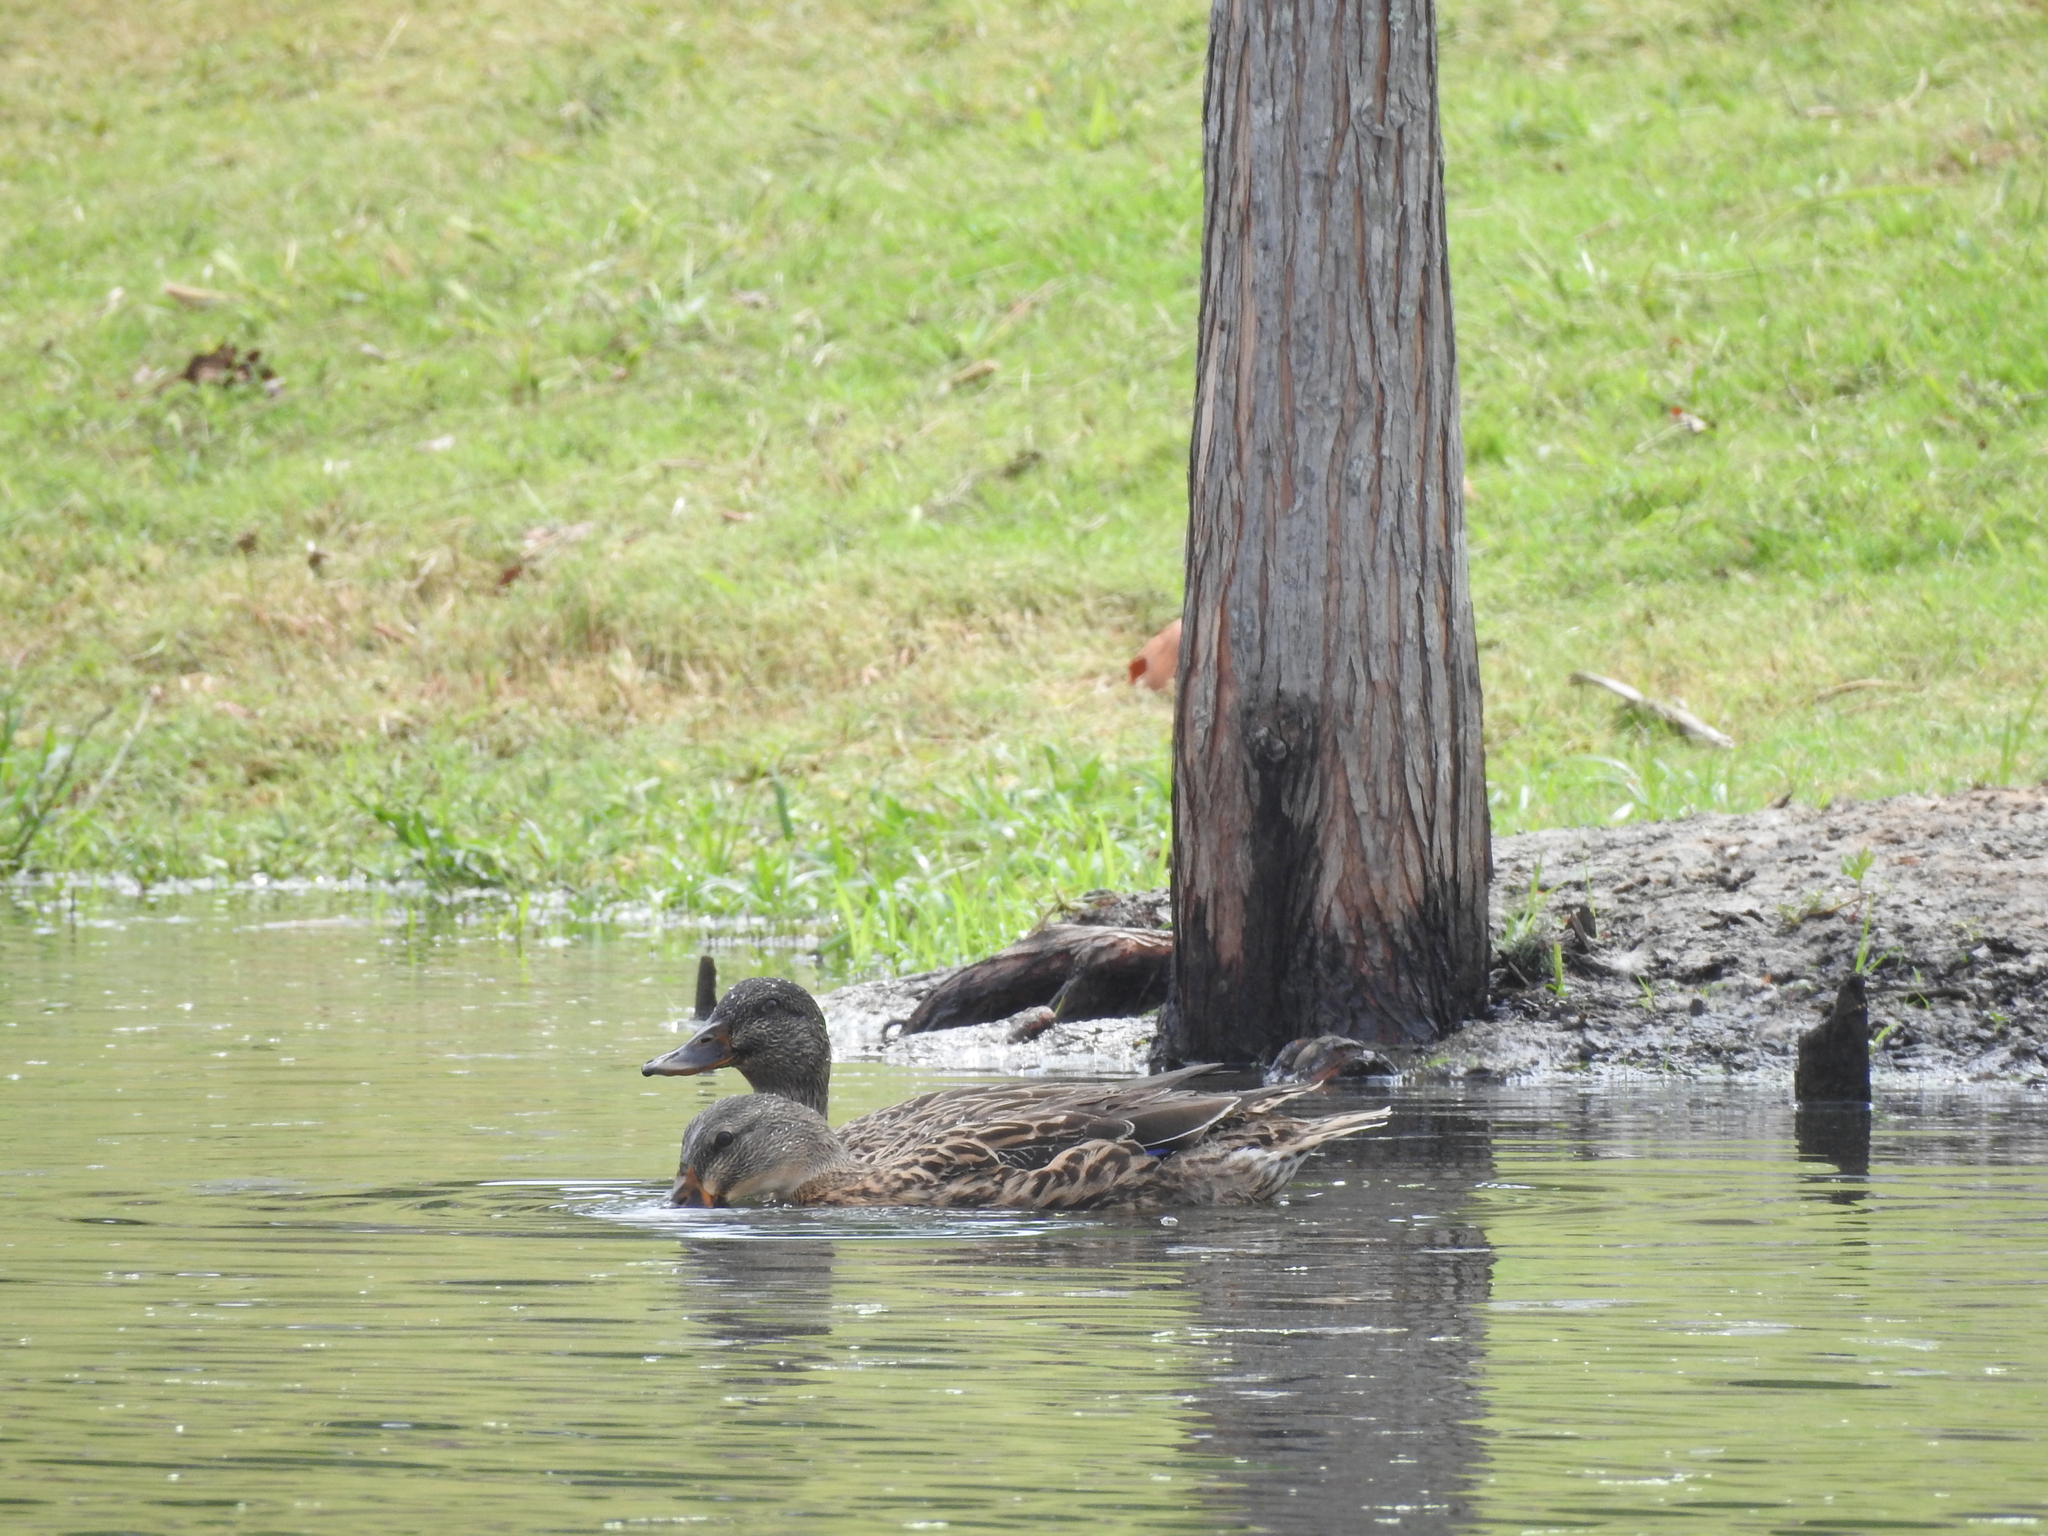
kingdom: Animalia
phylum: Chordata
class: Aves
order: Anseriformes
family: Anatidae
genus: Anas
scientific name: Anas platyrhynchos
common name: Mallard
